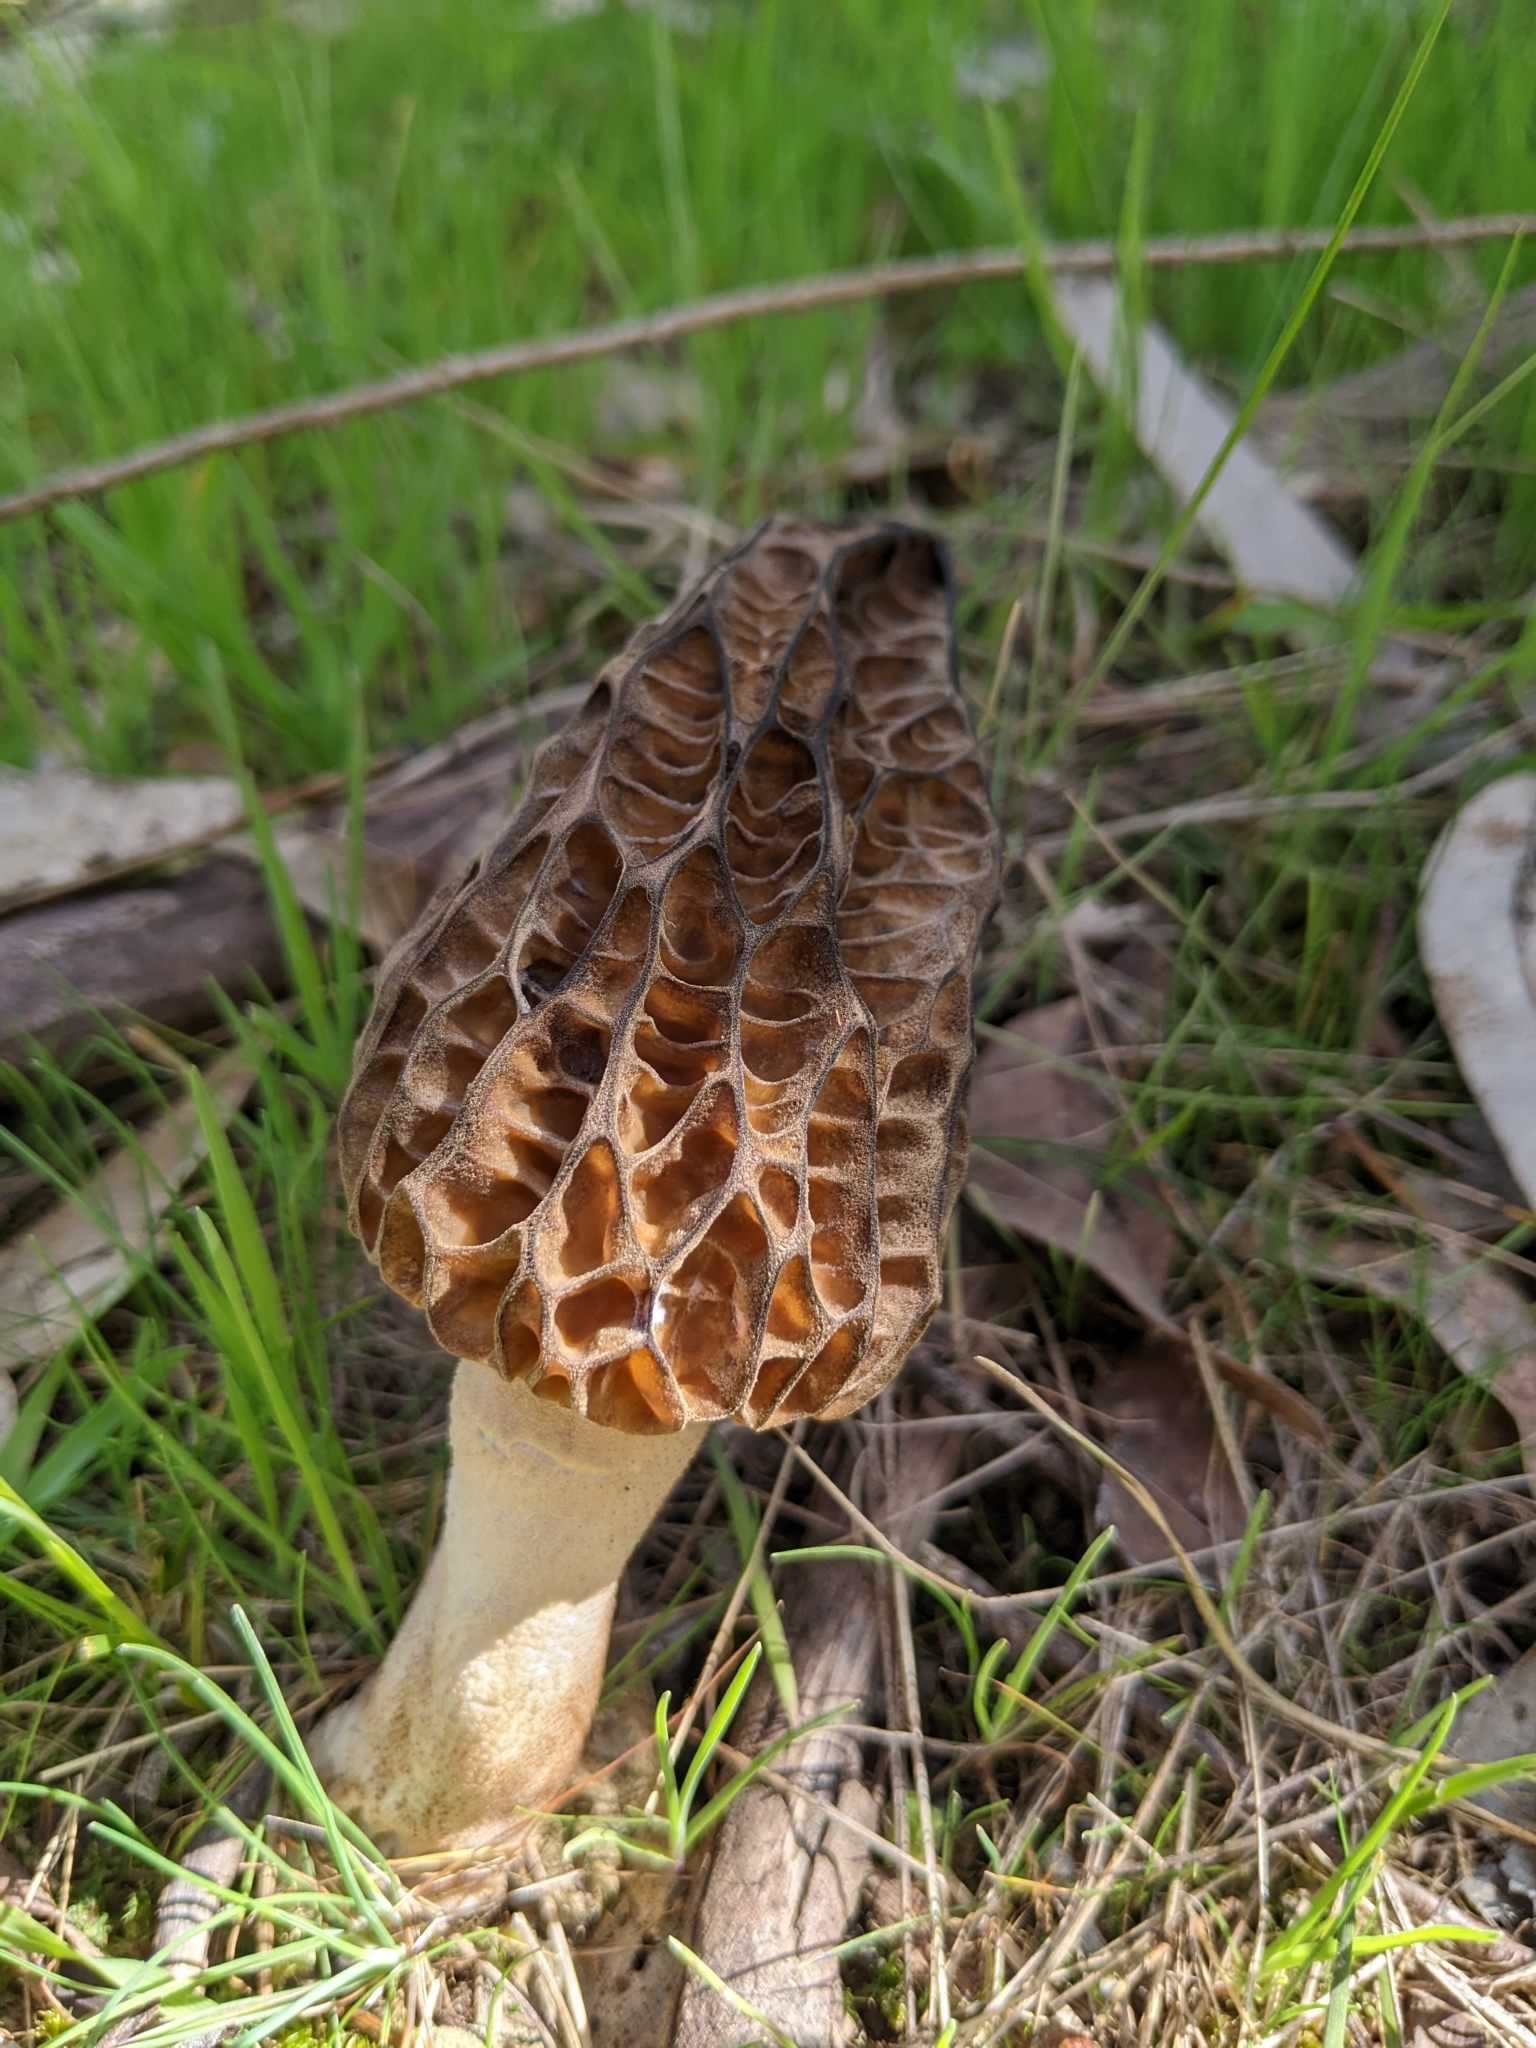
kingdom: Fungi
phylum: Ascomycota
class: Pezizomycetes
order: Pezizales
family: Morchellaceae
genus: Morchella
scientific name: Morchella australiana
